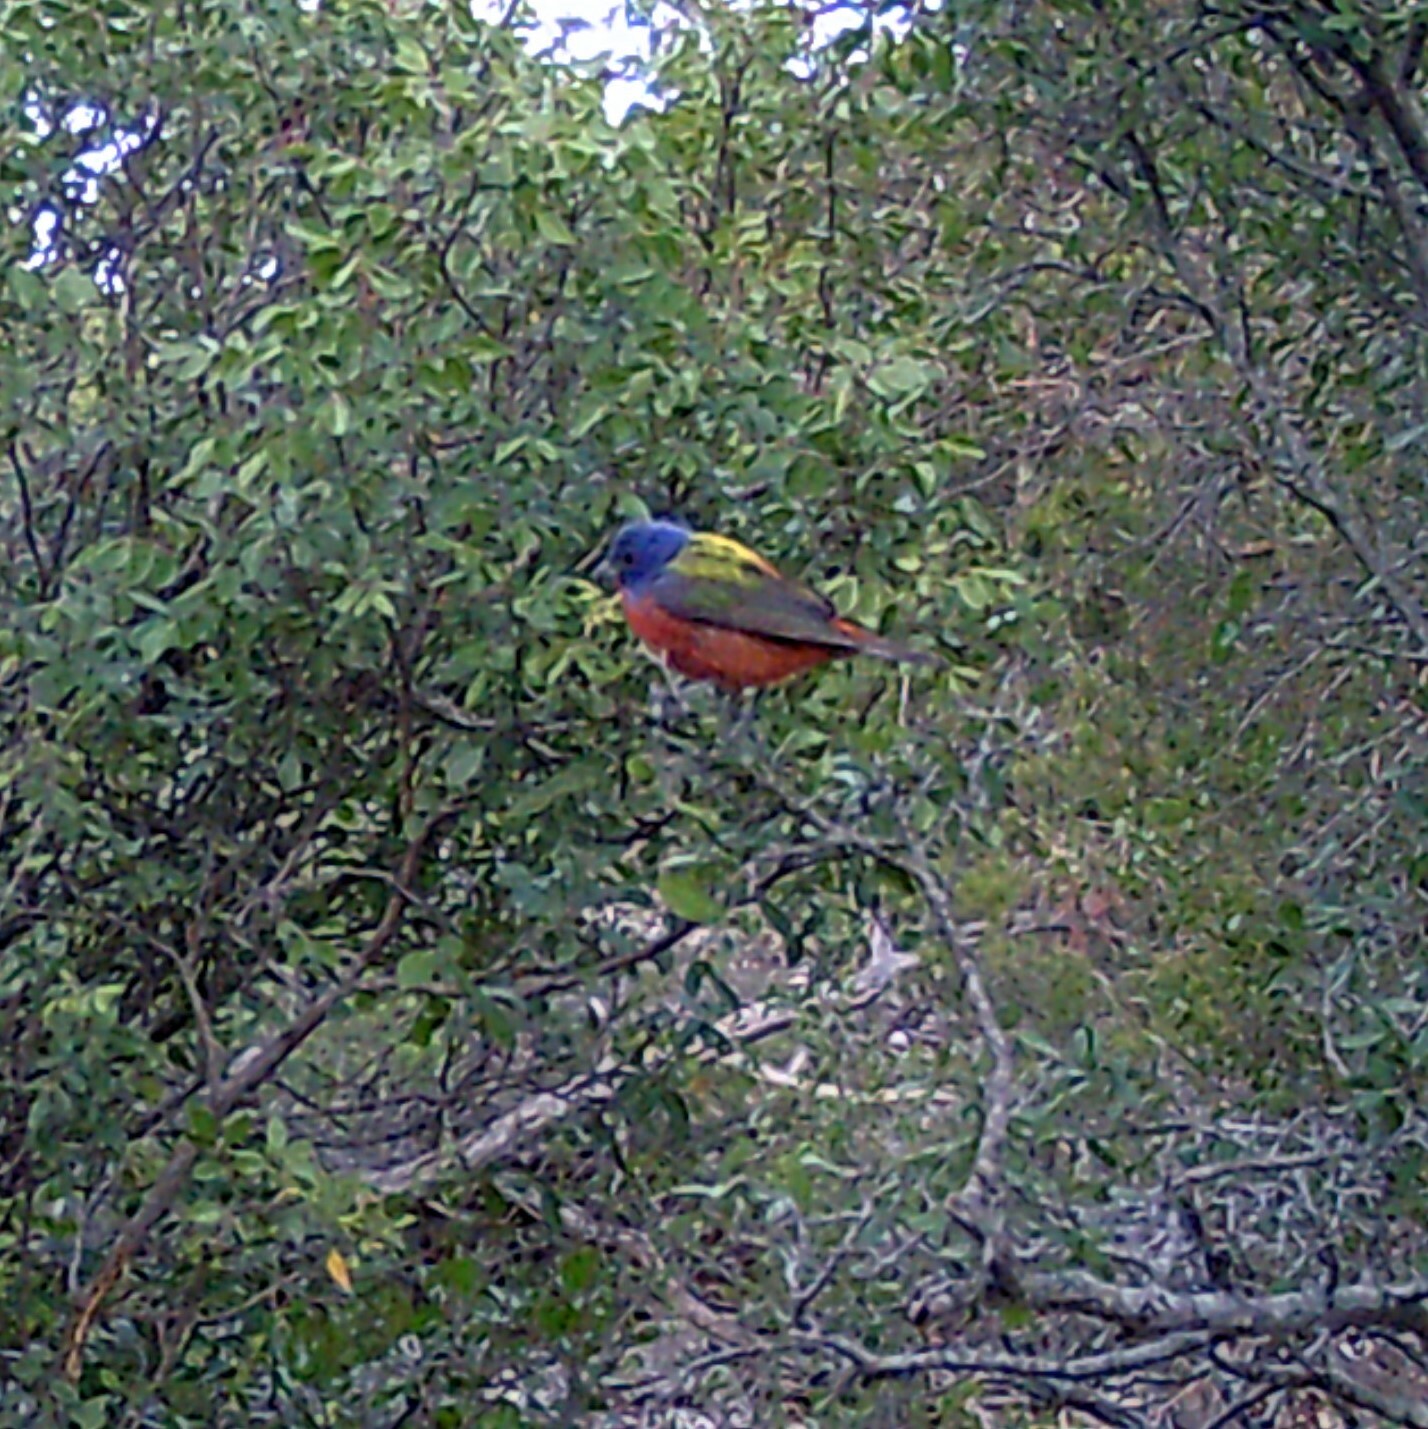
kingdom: Animalia
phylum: Chordata
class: Aves
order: Passeriformes
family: Cardinalidae
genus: Passerina
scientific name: Passerina ciris
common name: Painted bunting
